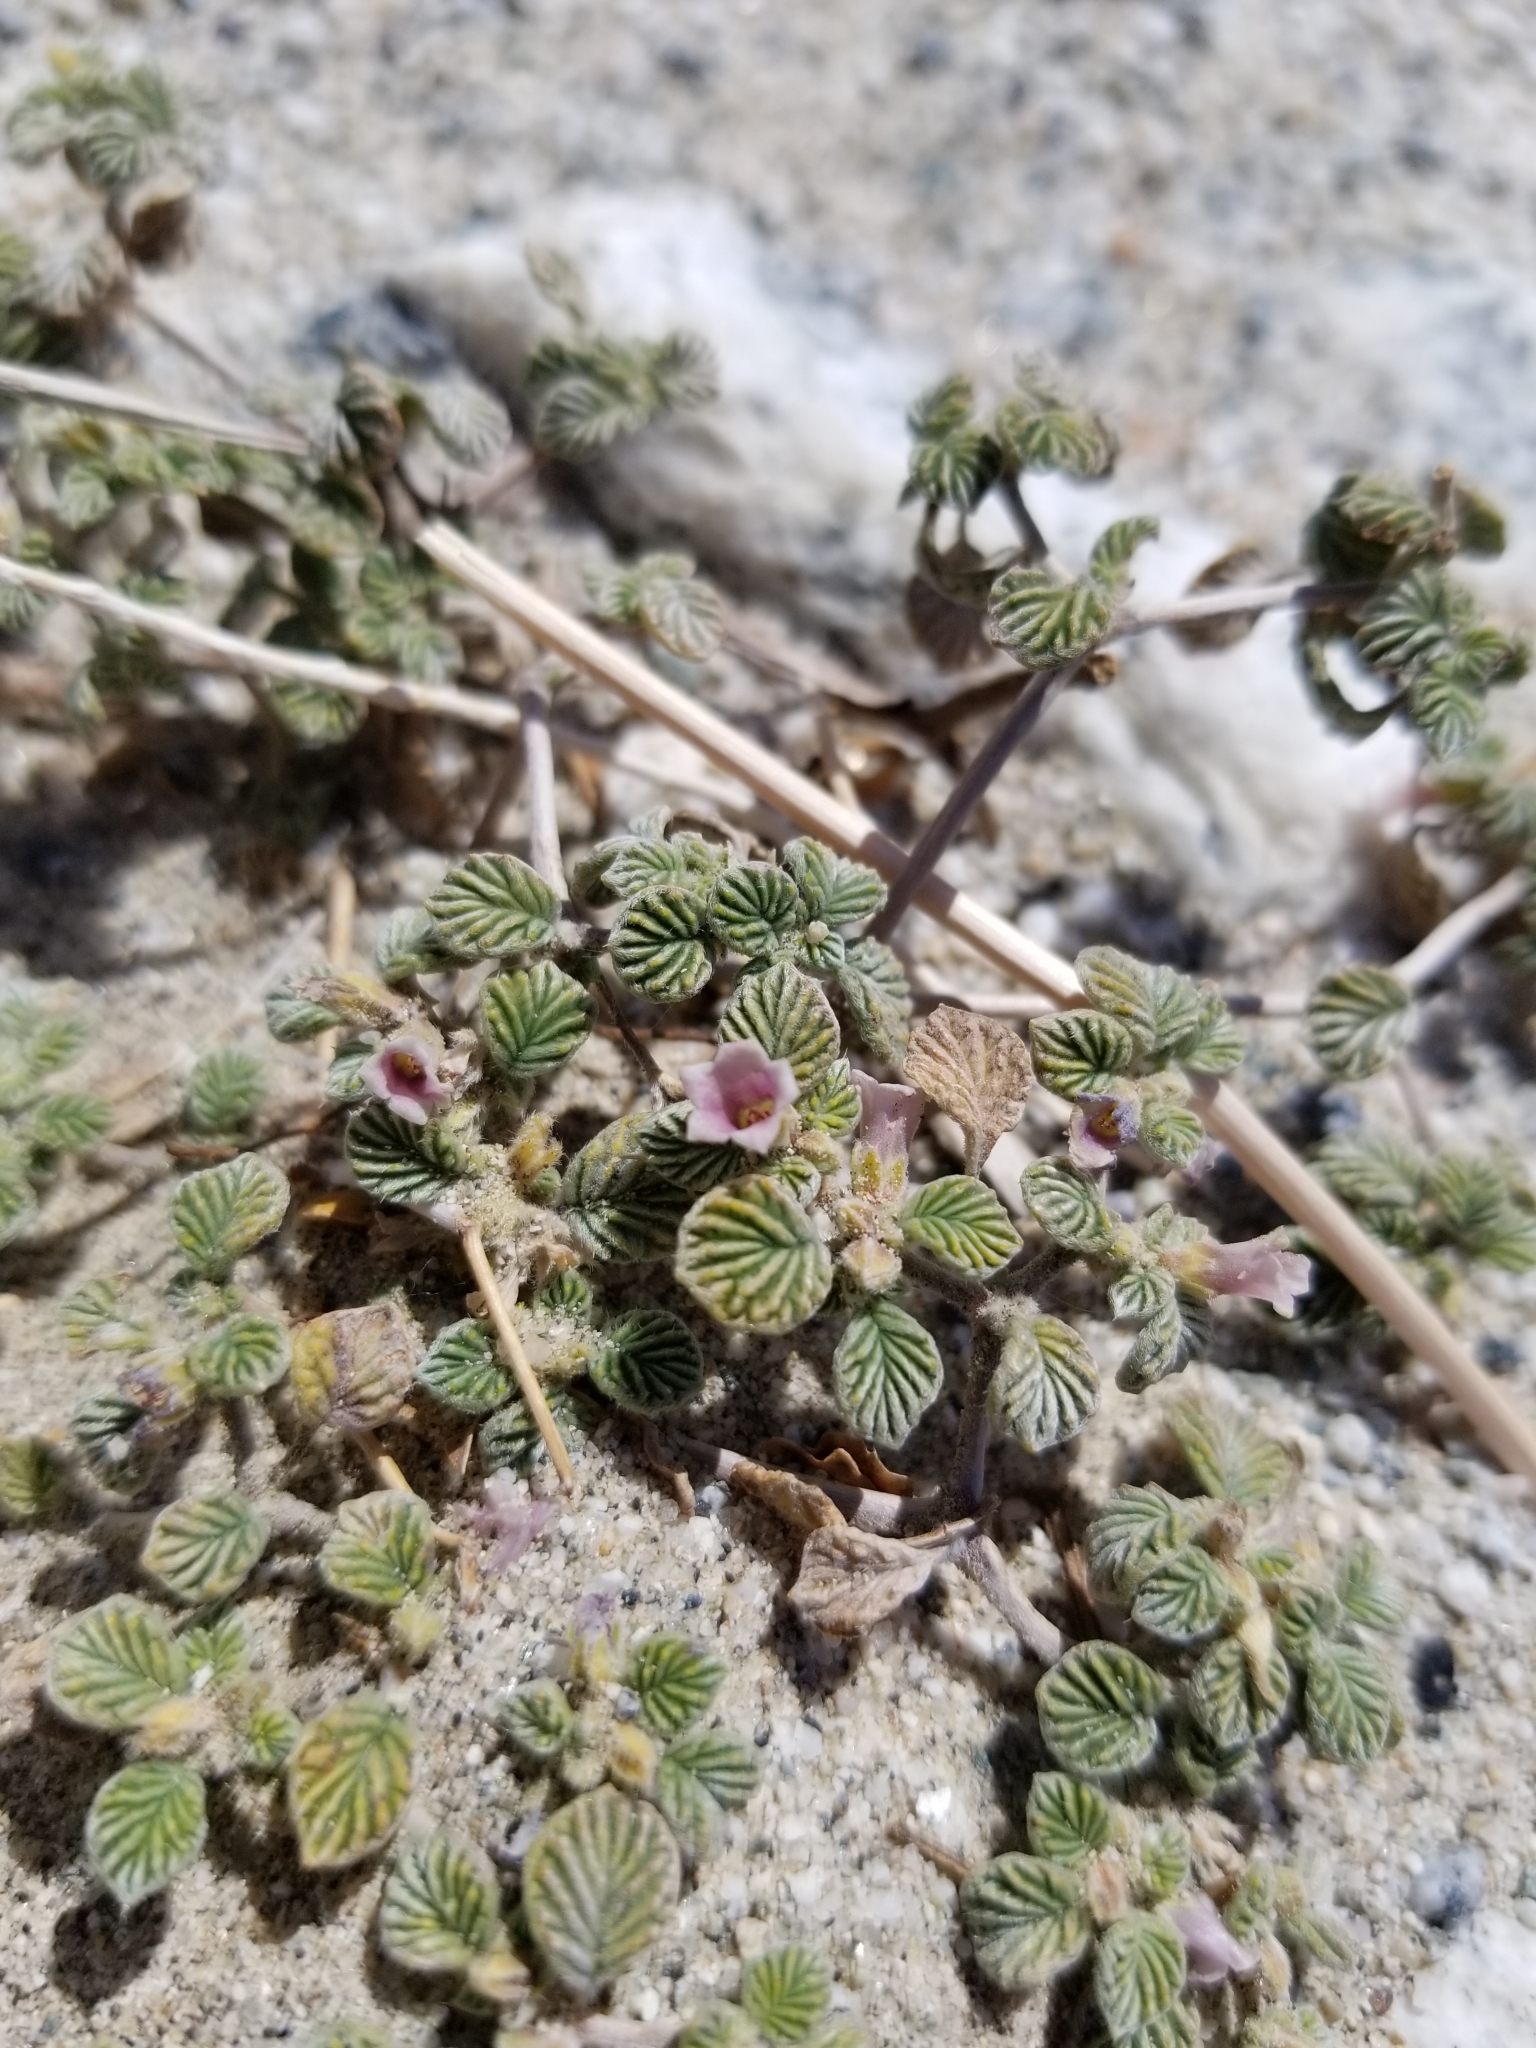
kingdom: Plantae
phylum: Tracheophyta
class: Magnoliopsida
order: Boraginales
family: Ehretiaceae
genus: Tiquilia
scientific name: Tiquilia plicata
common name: Fan-leaf tiquilia
